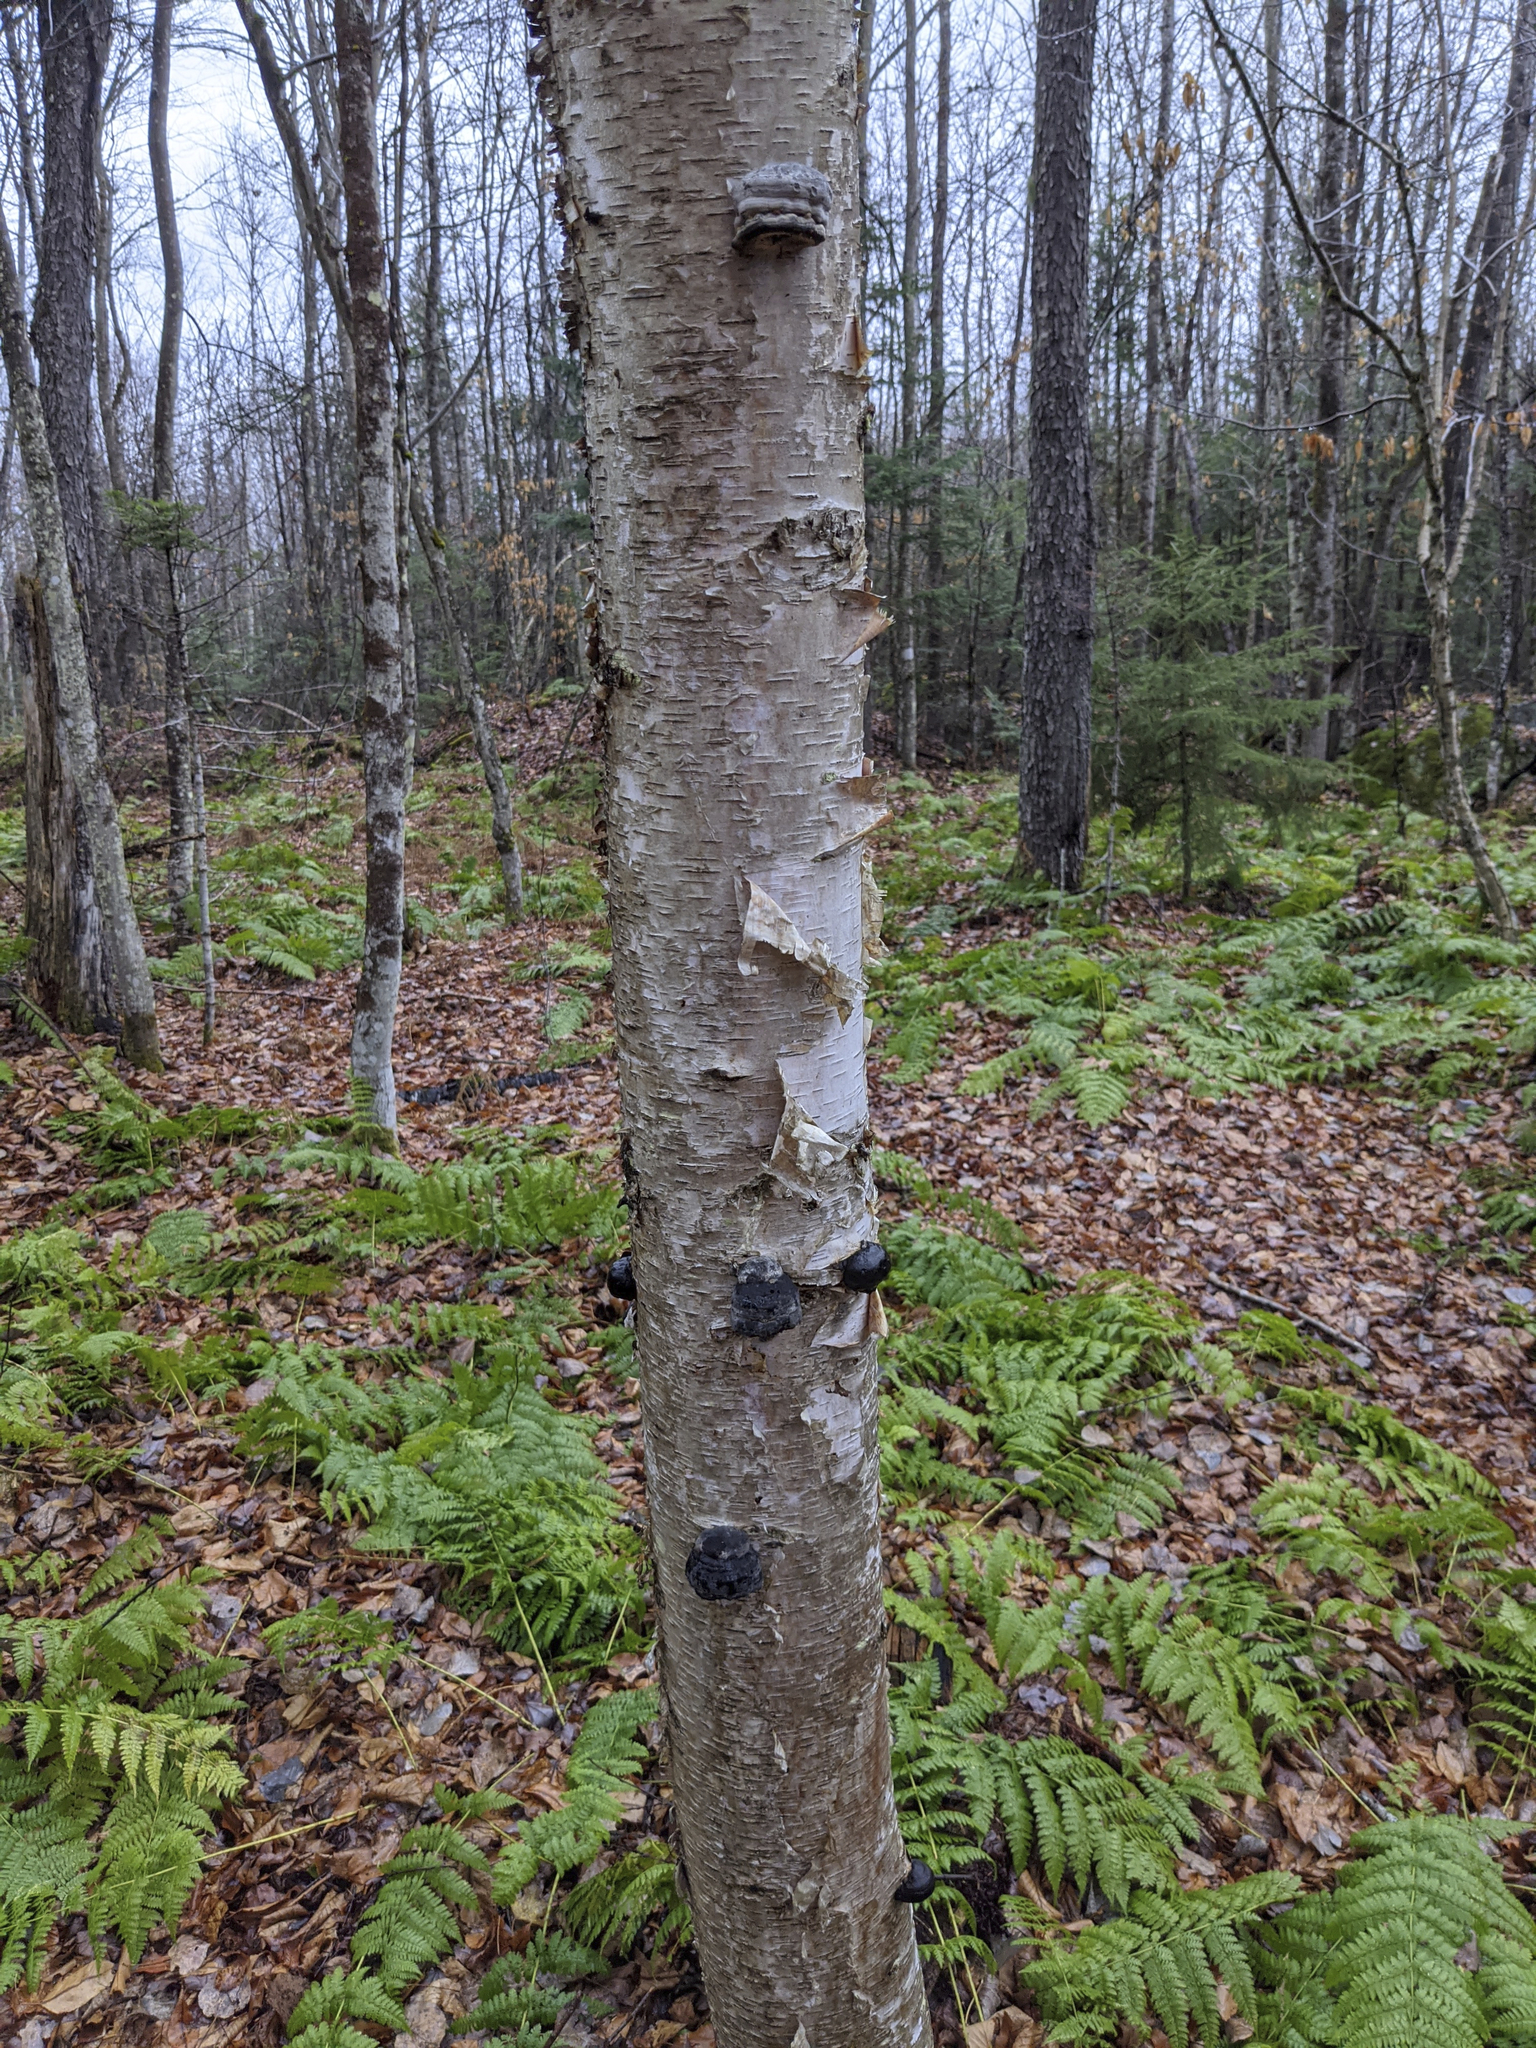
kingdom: Plantae
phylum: Tracheophyta
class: Magnoliopsida
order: Fagales
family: Betulaceae
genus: Betula
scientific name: Betula alleghaniensis
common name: Yellow birch
